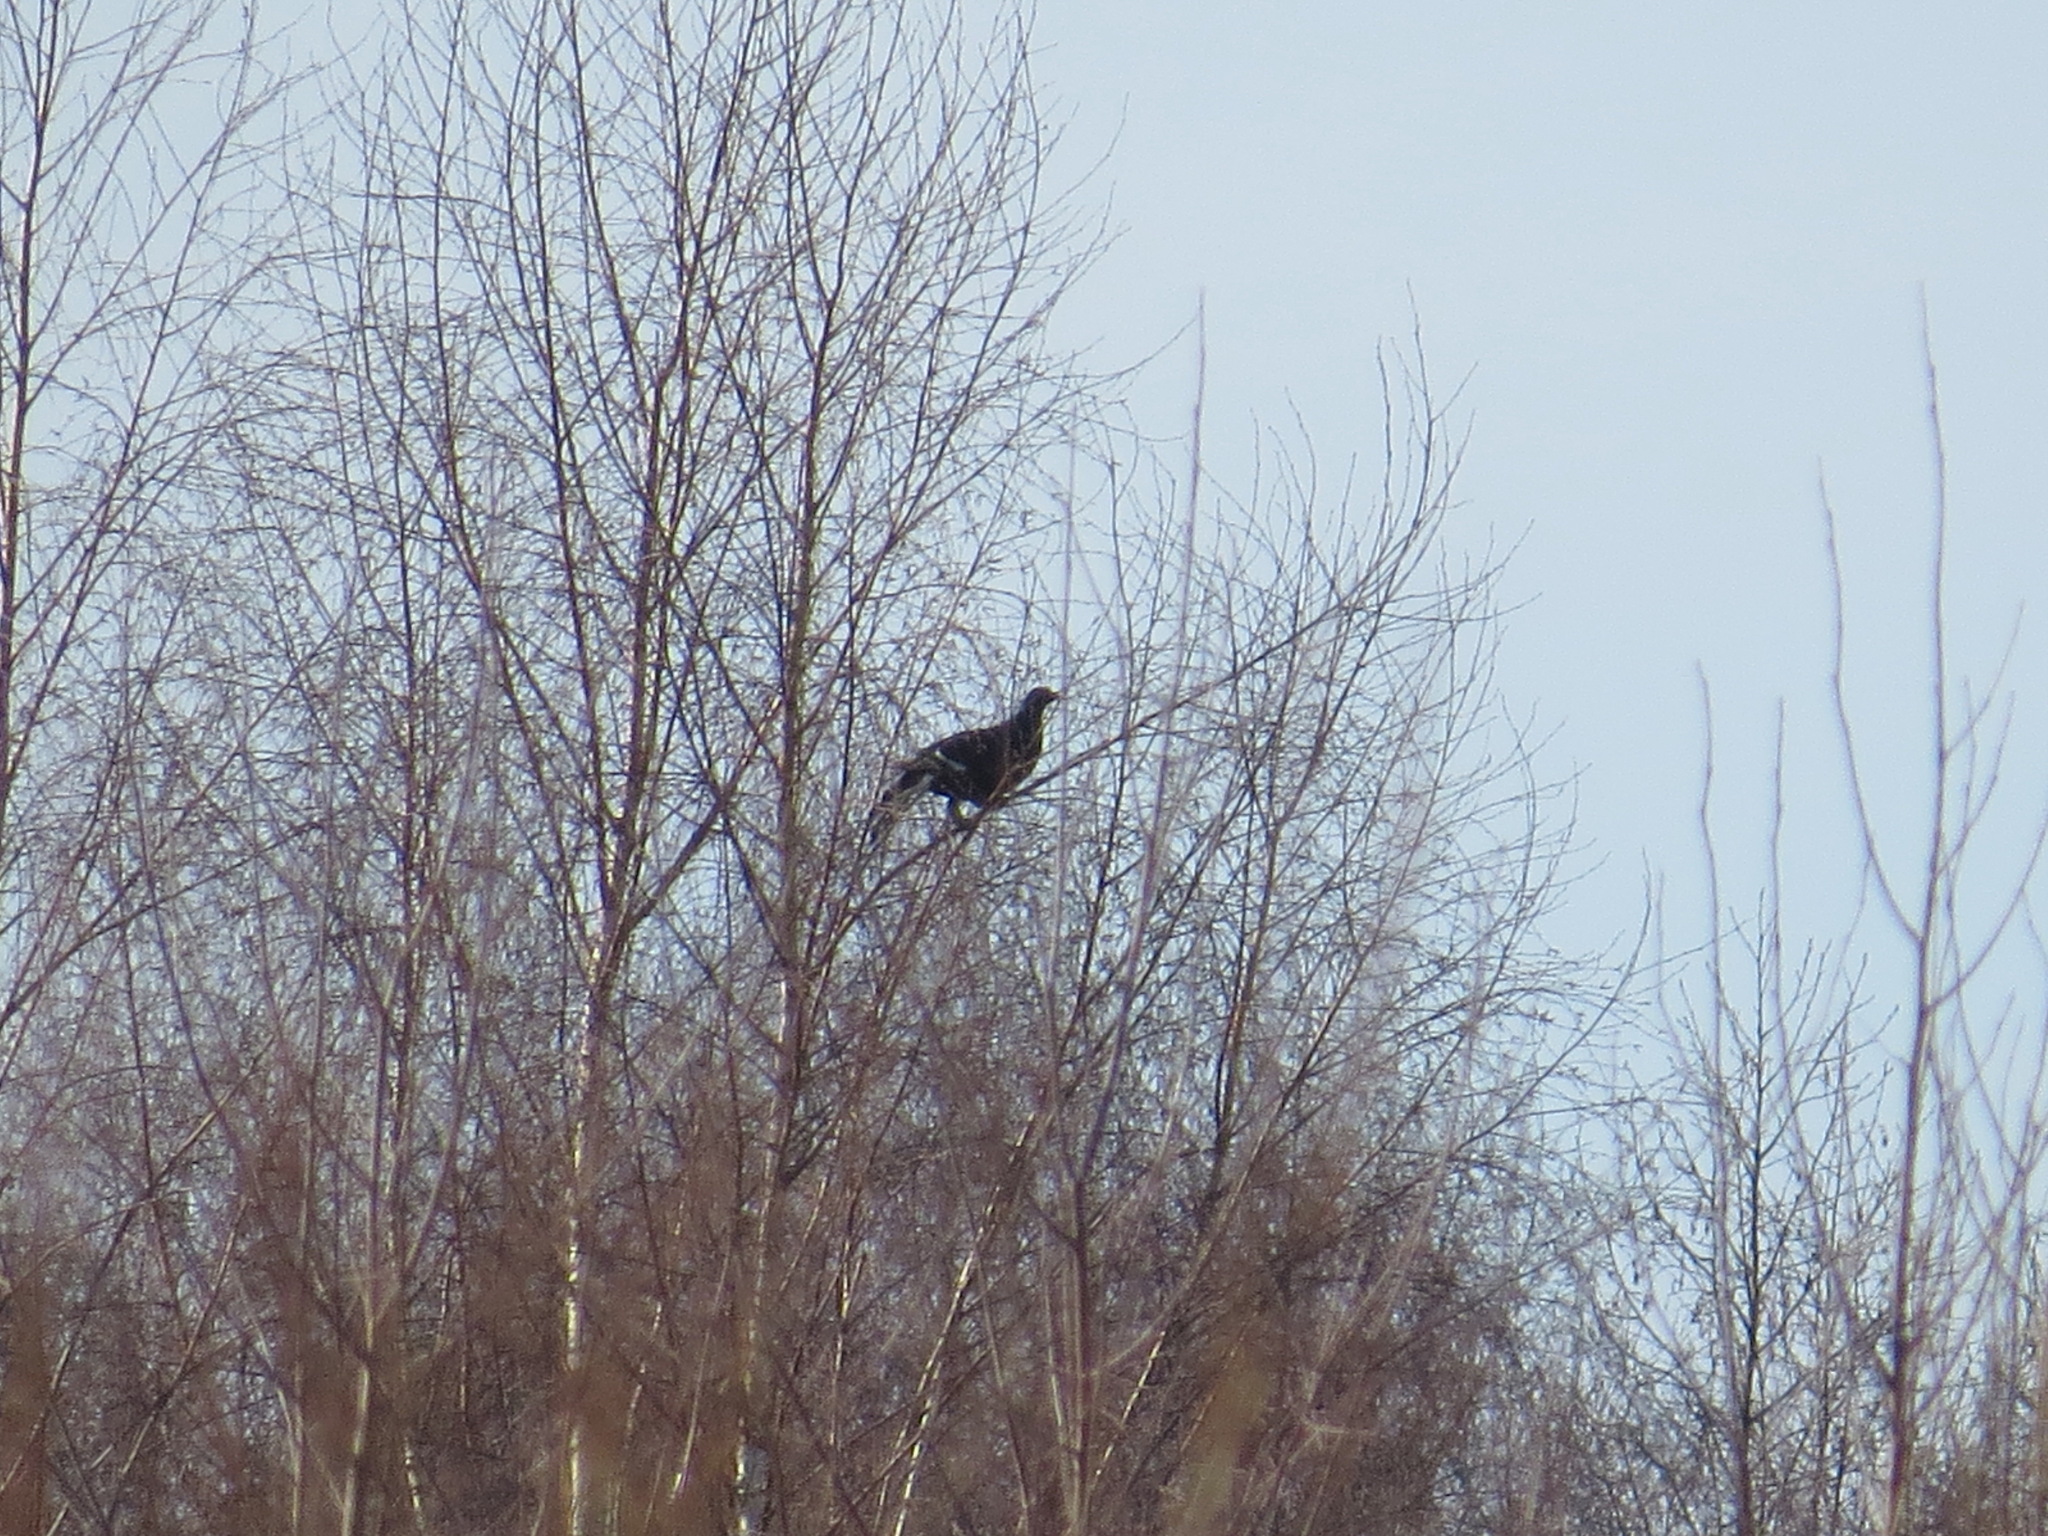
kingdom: Animalia
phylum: Chordata
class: Aves
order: Galliformes
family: Phasianidae
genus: Lyrurus
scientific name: Lyrurus tetrix
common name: Black grouse
